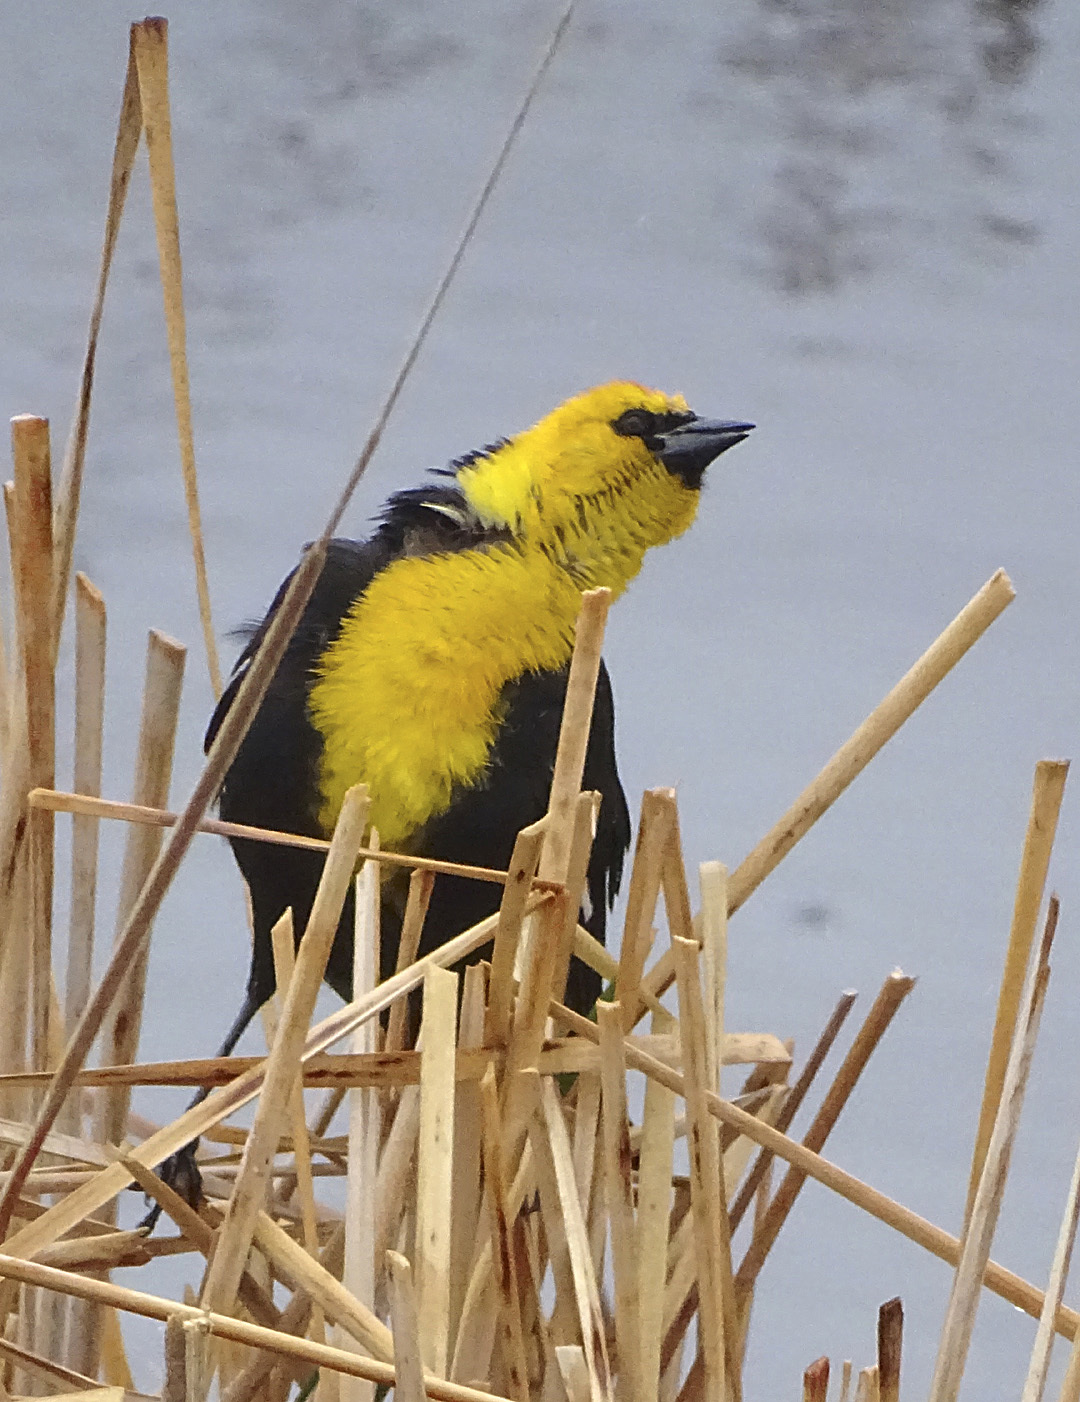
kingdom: Animalia
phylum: Chordata
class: Aves
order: Passeriformes
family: Icteridae
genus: Xanthocephalus
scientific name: Xanthocephalus xanthocephalus
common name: Yellow-headed blackbird
